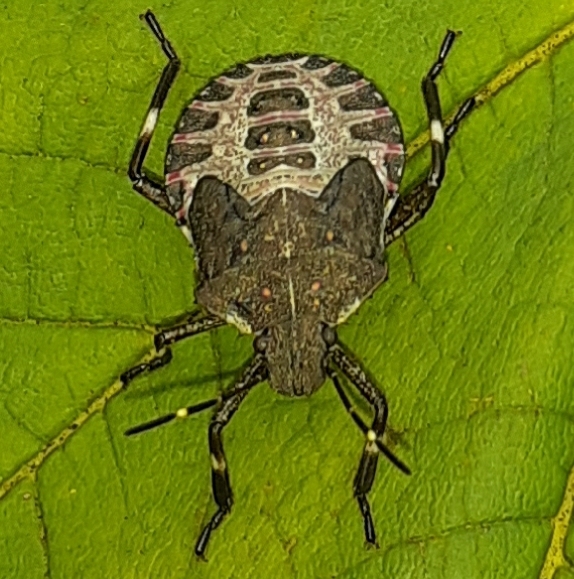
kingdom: Animalia
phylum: Arthropoda
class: Insecta
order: Hemiptera
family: Pentatomidae
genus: Halyomorpha
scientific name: Halyomorpha halys
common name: Brown marmorated stink bug
